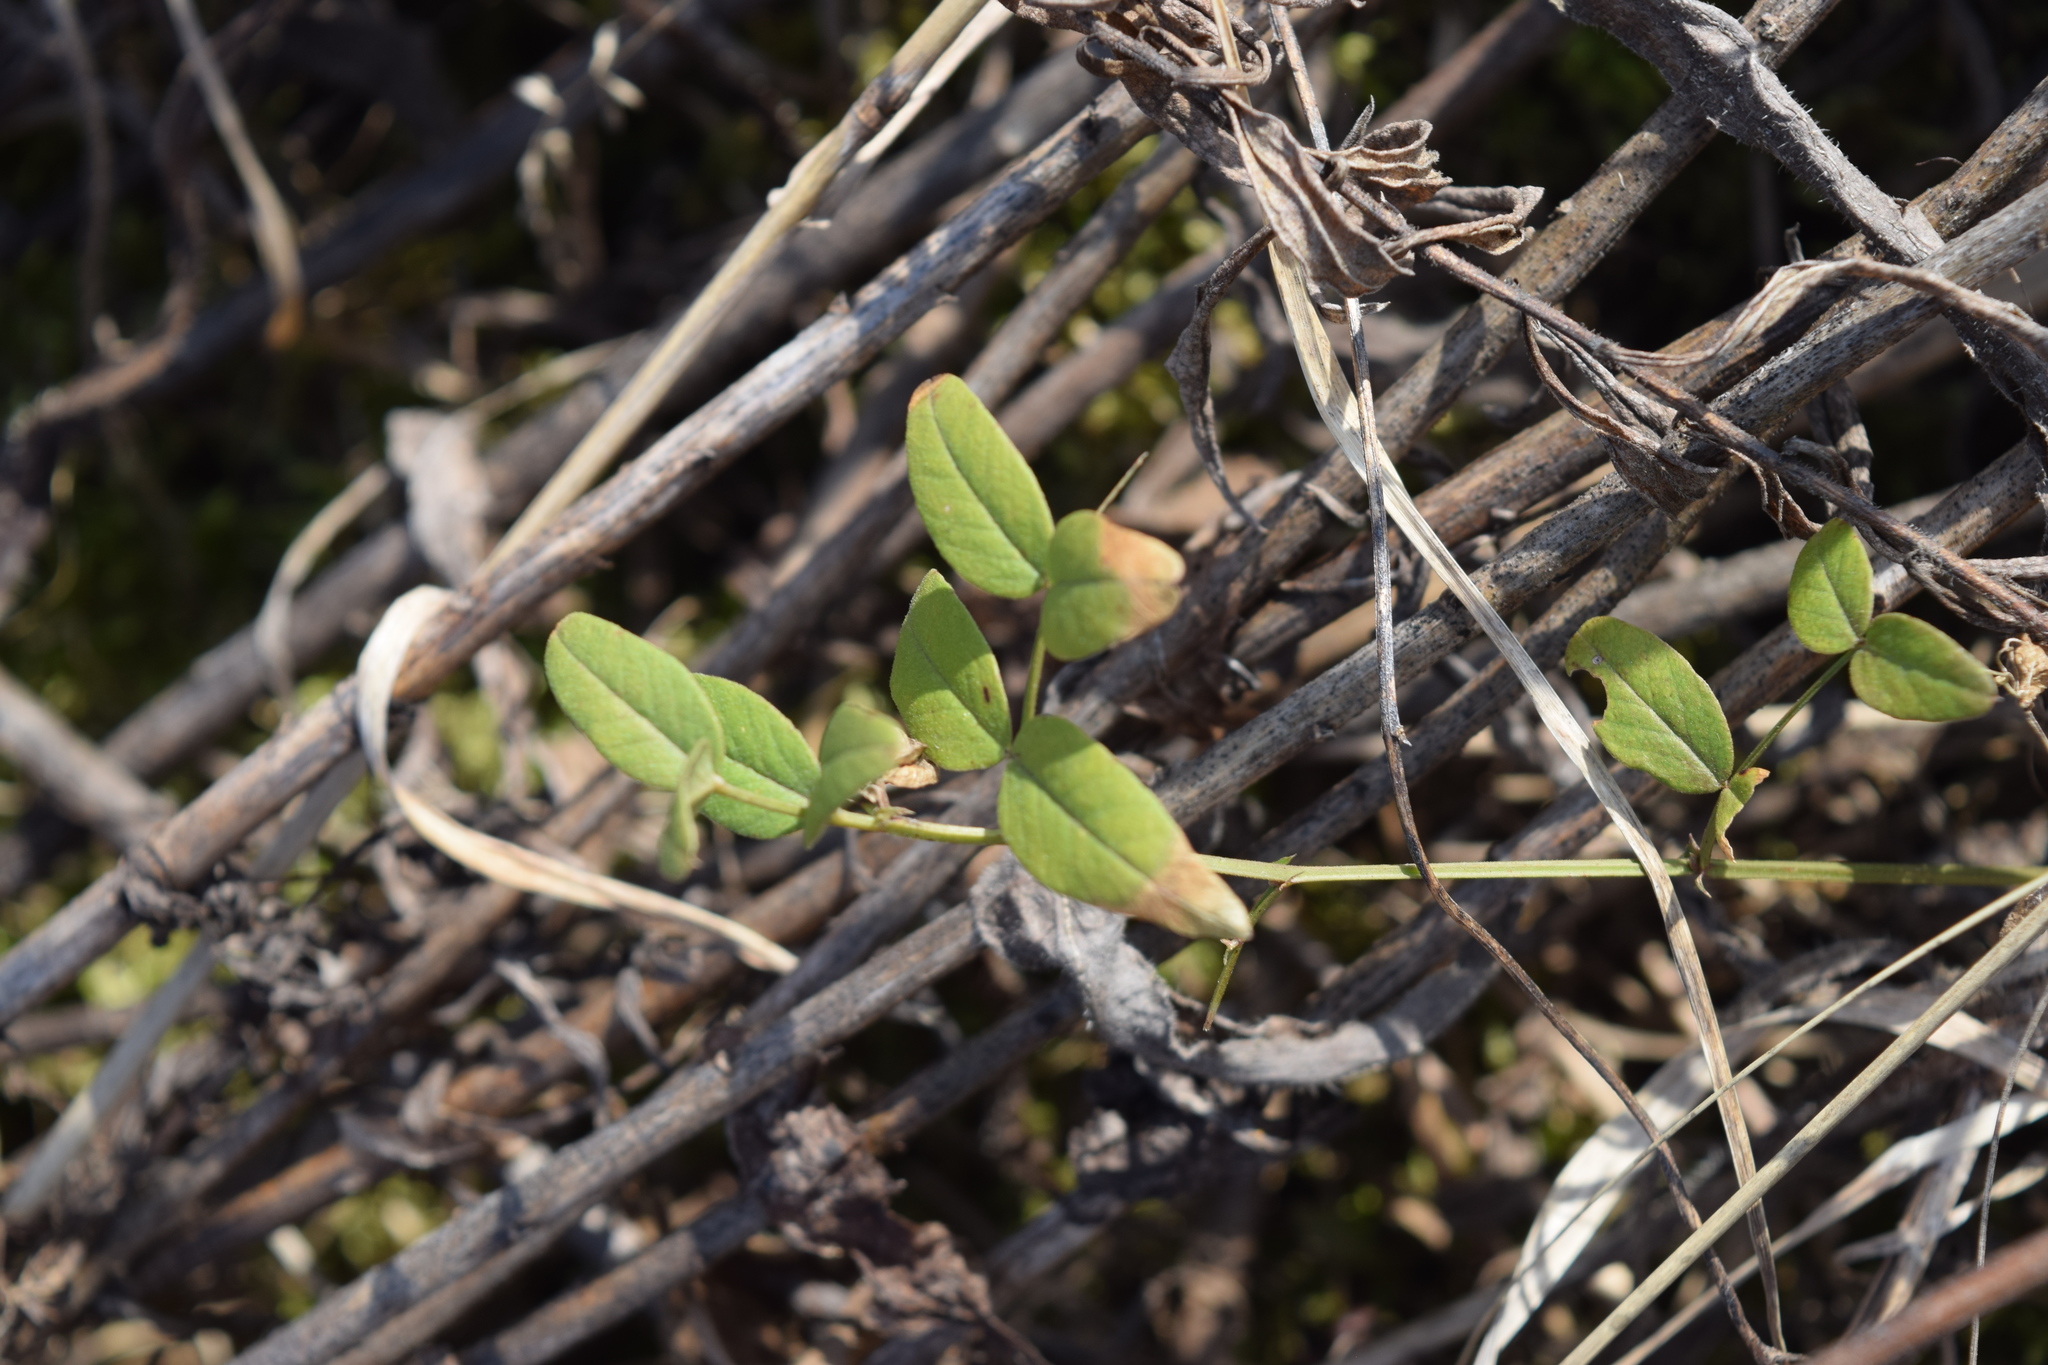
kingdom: Plantae
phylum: Tracheophyta
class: Magnoliopsida
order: Fabales
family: Fabaceae
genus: Vicia
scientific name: Vicia sepium
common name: Bush vetch
